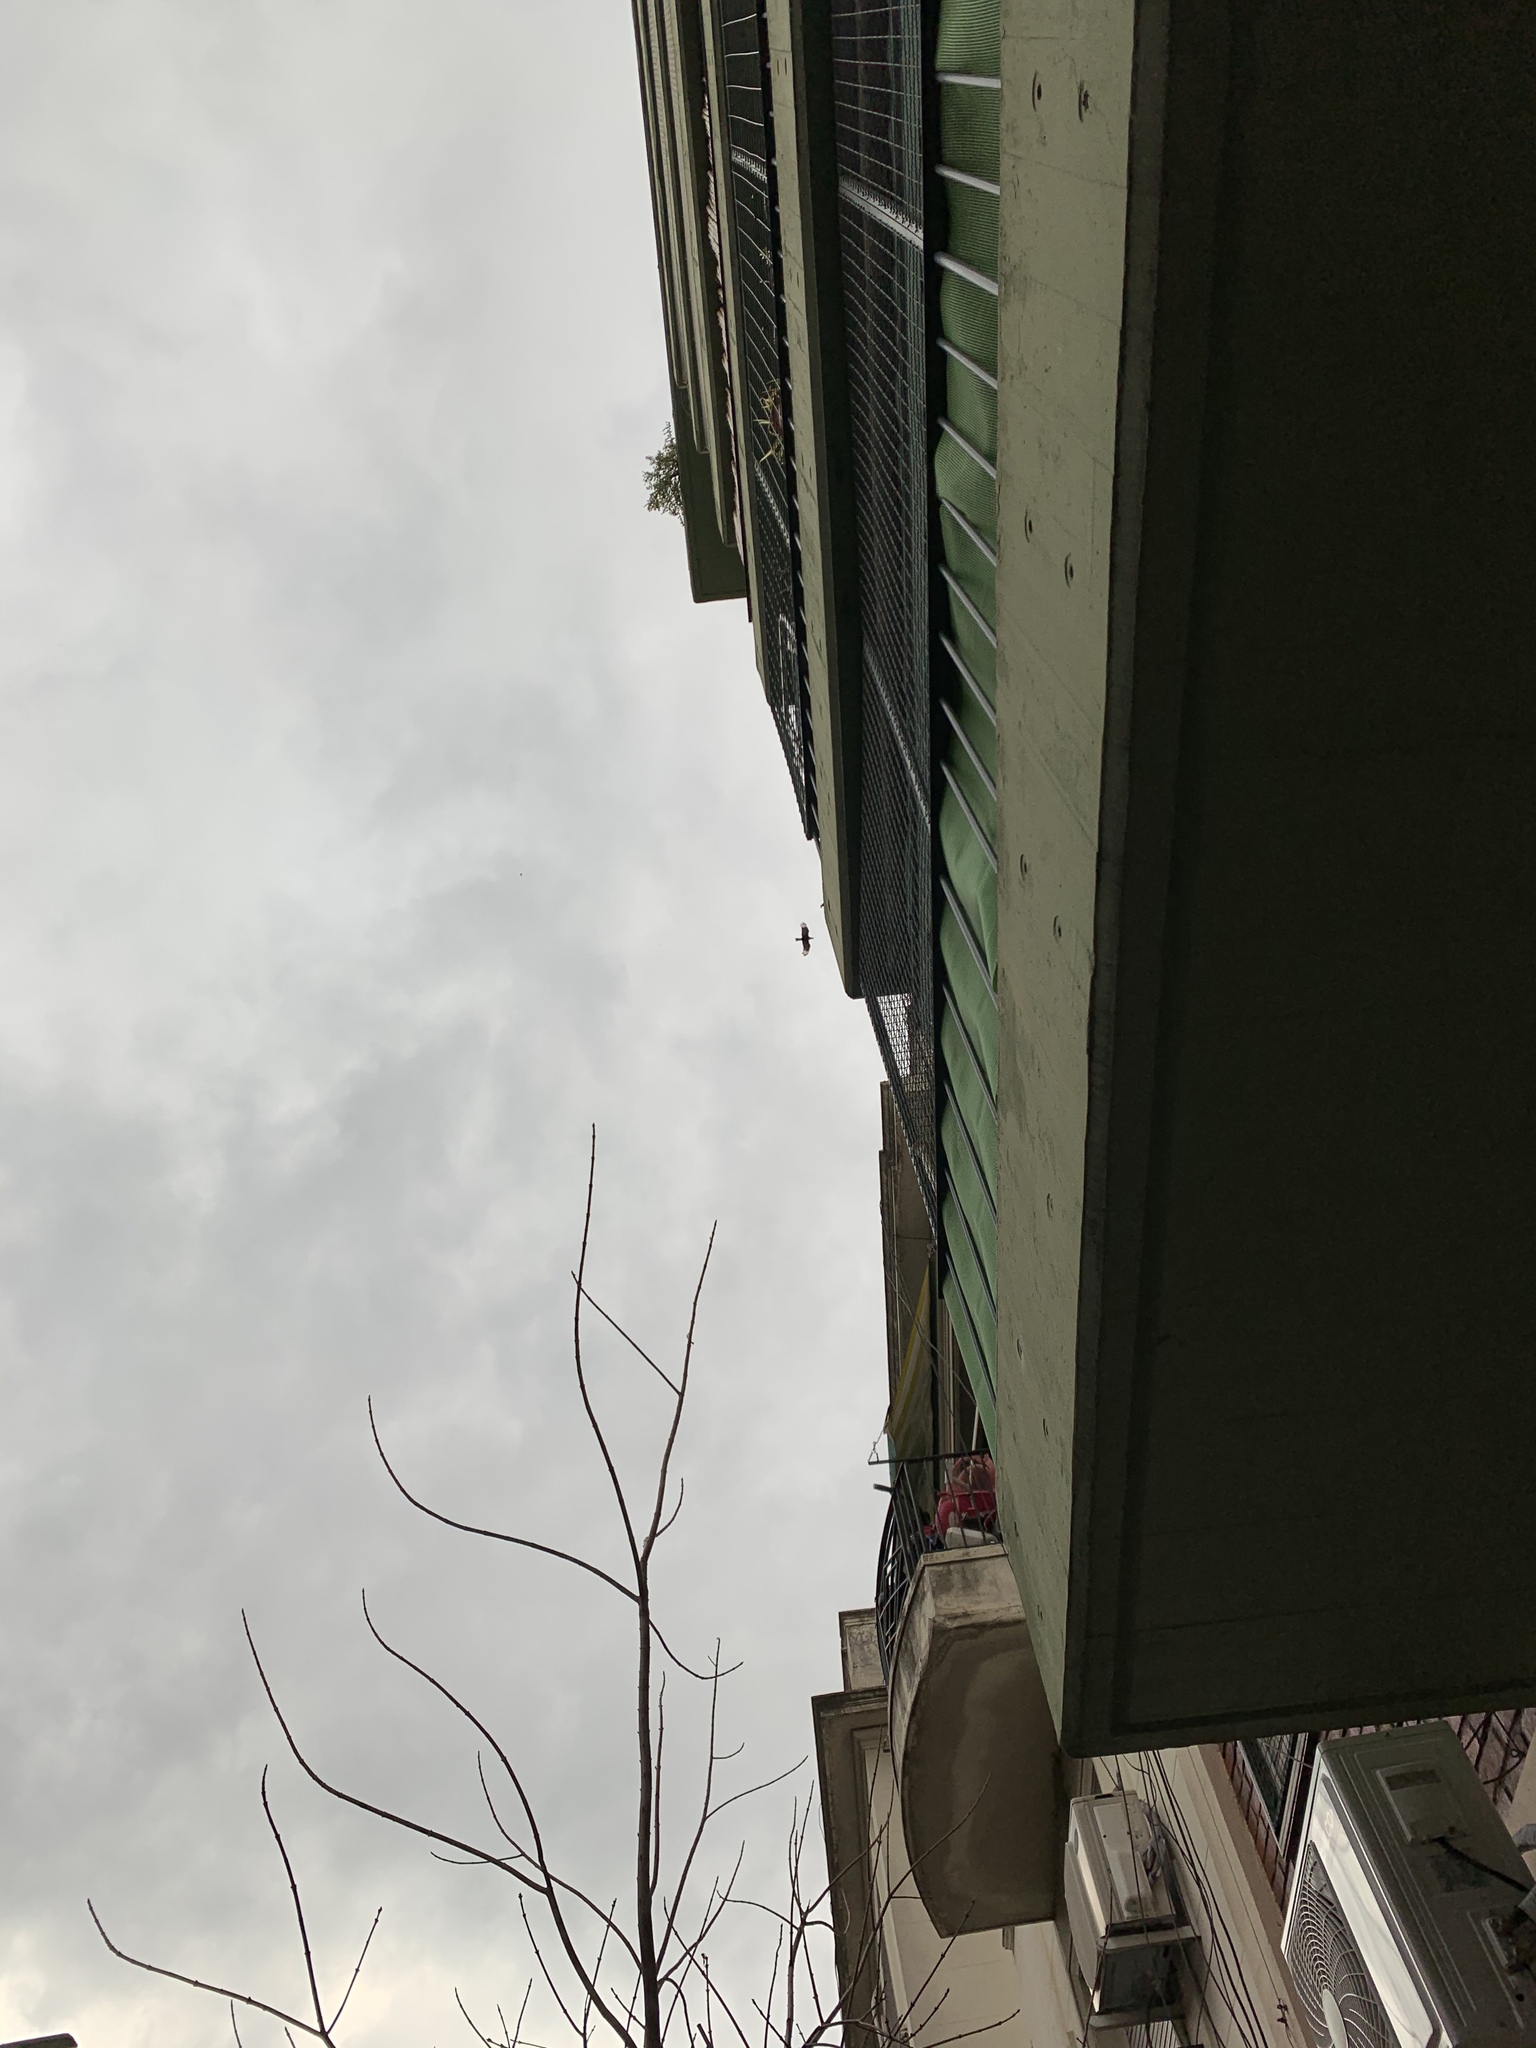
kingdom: Animalia
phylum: Chordata
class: Aves
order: Falconiformes
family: Falconidae
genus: Caracara
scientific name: Caracara plancus
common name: Southern caracara
